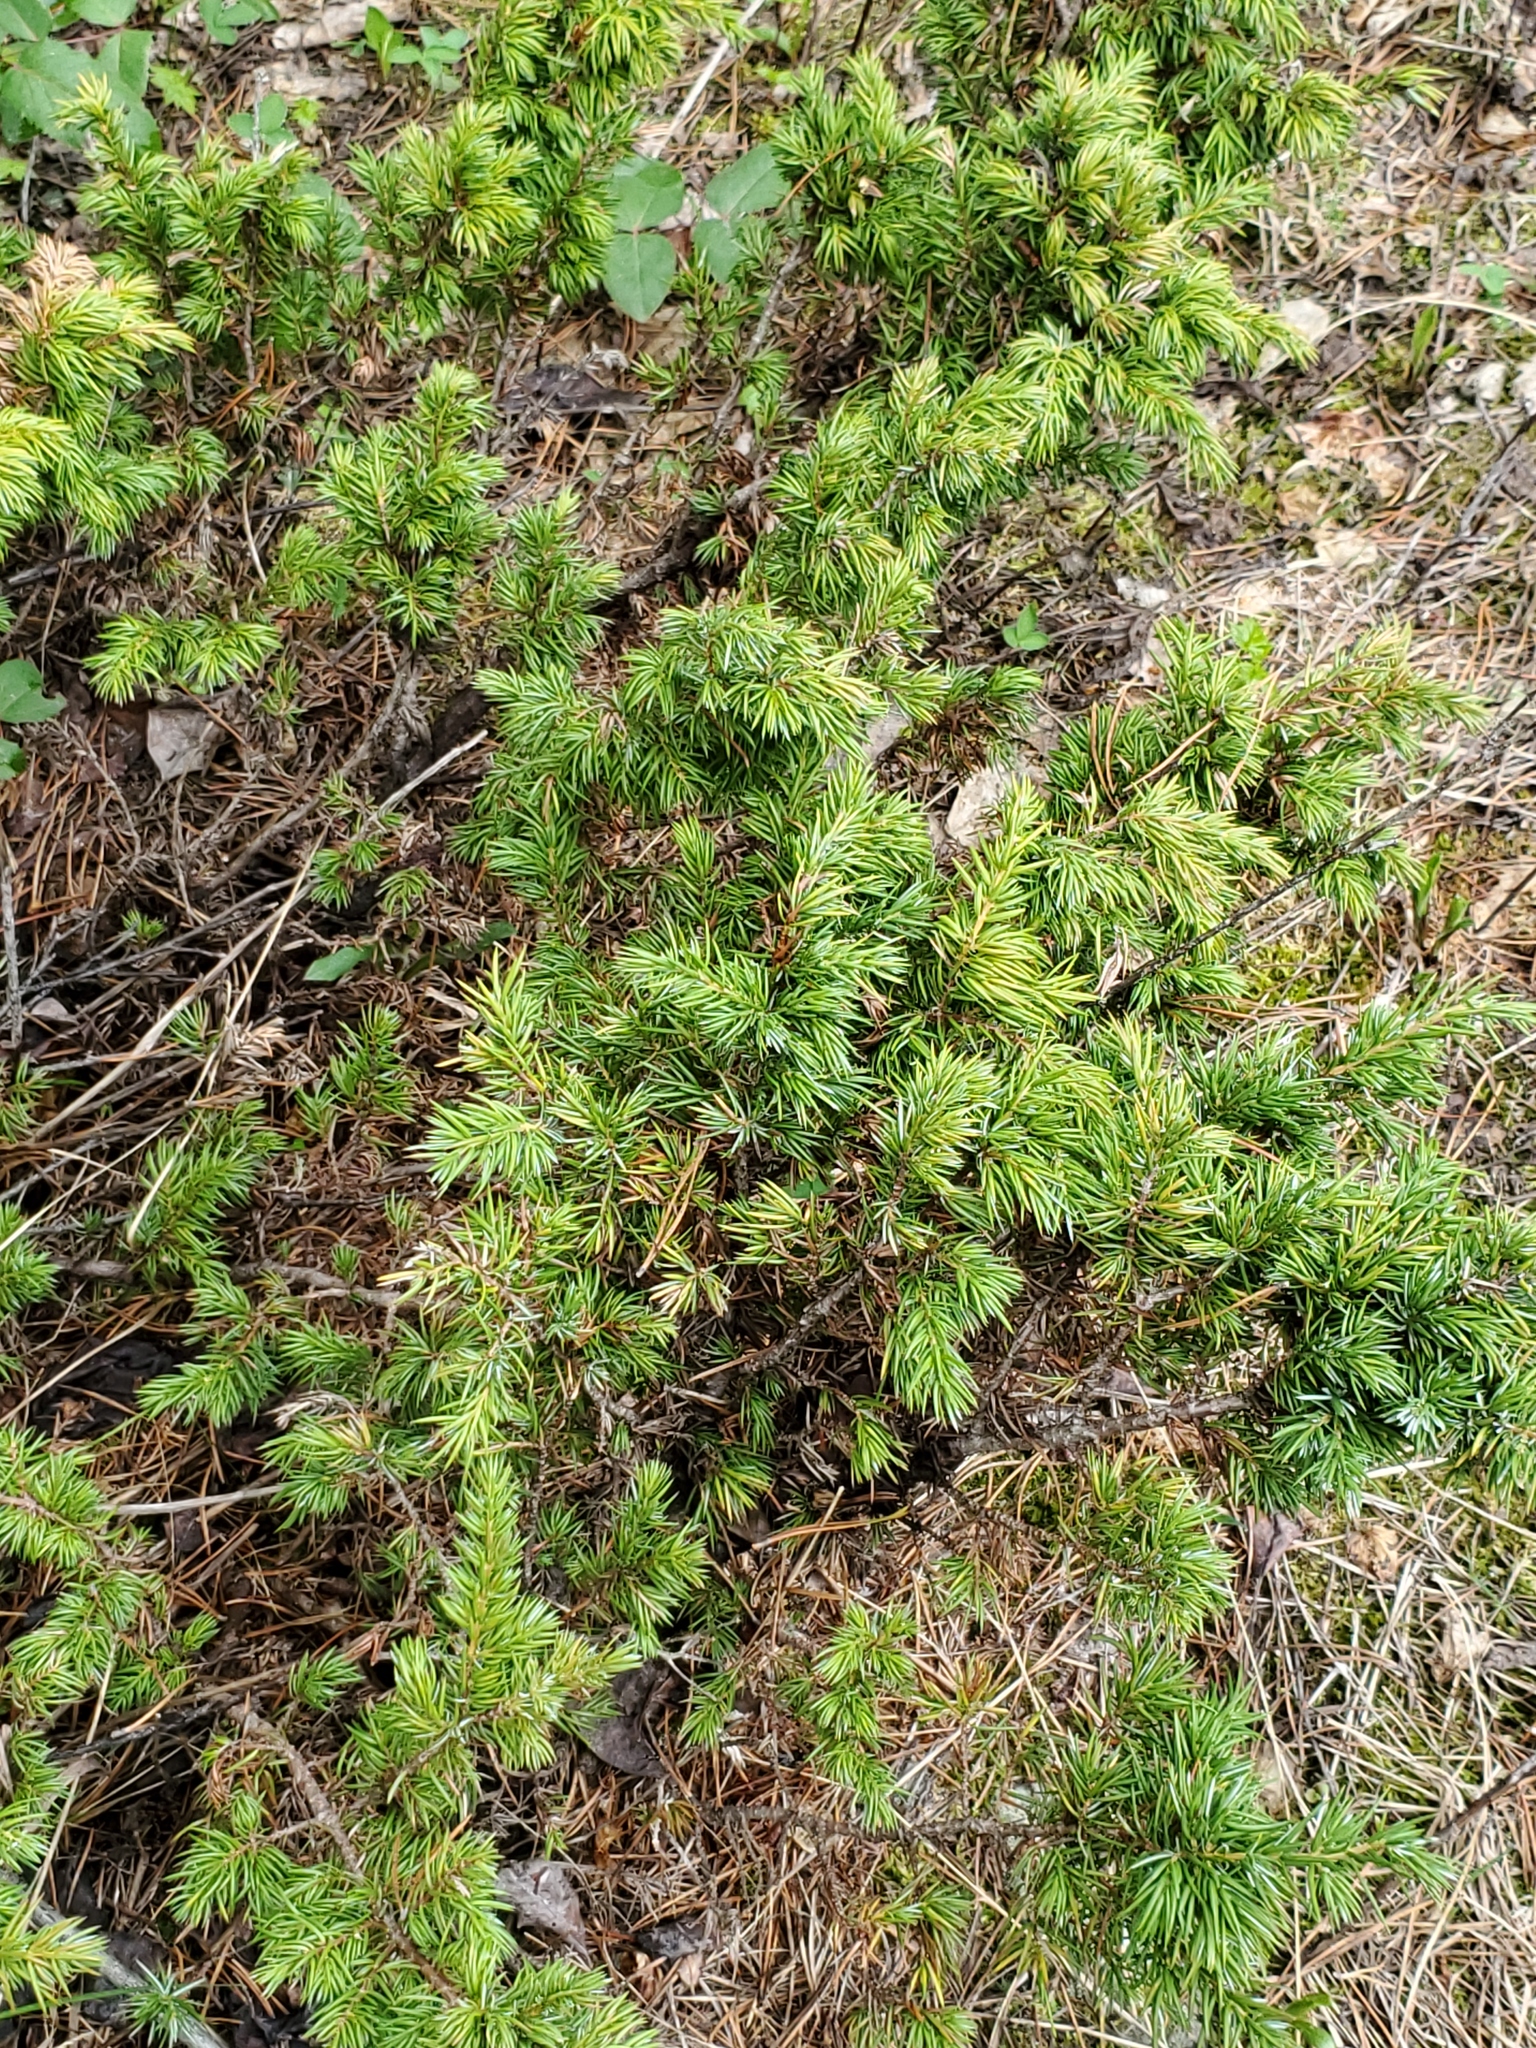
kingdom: Plantae
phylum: Tracheophyta
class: Pinopsida
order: Pinales
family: Cupressaceae
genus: Juniperus
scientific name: Juniperus communis
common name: Common juniper
